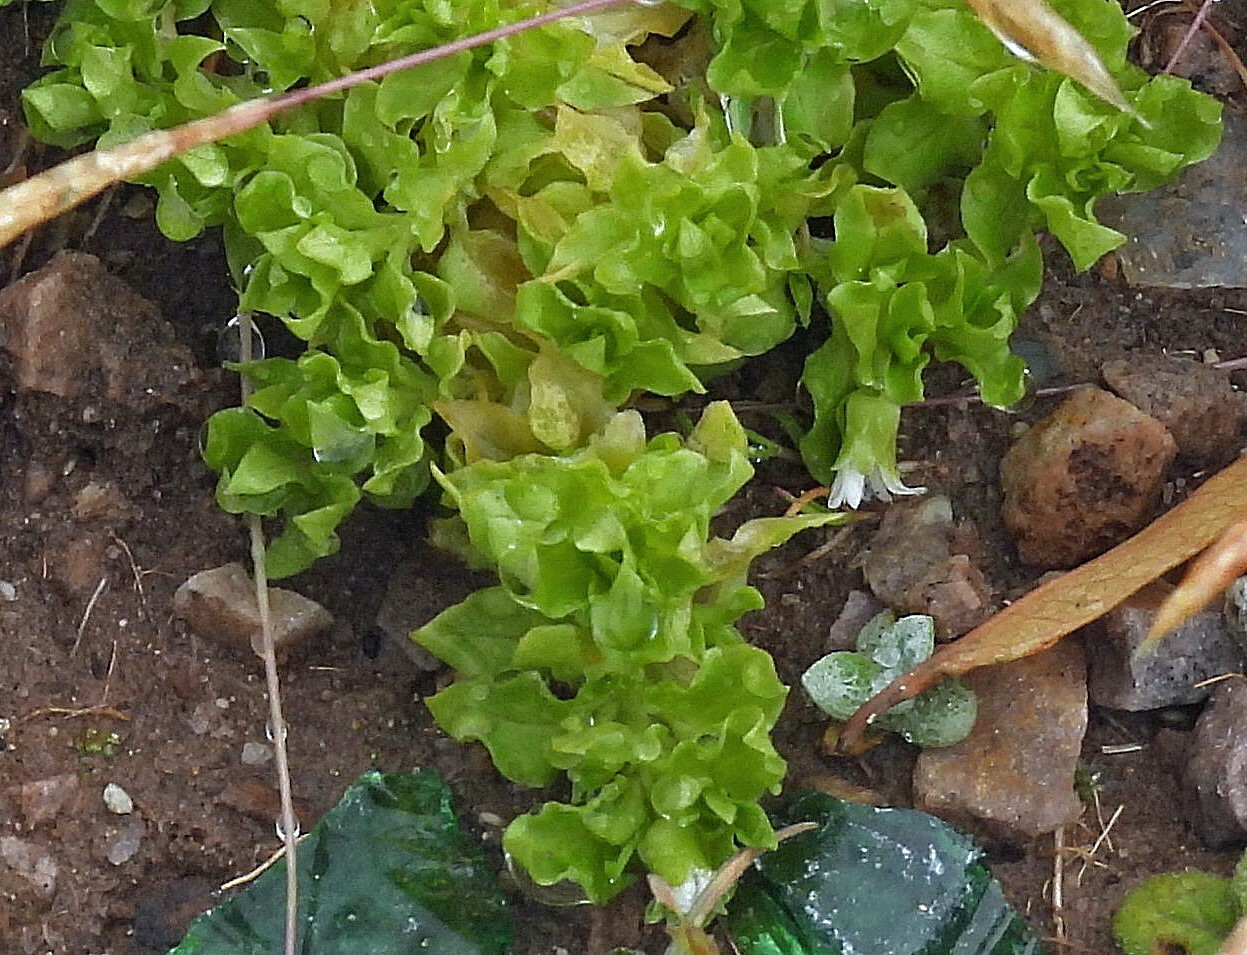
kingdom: Plantae
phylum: Tracheophyta
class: Magnoliopsida
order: Caryophyllales
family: Caryophyllaceae
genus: Stellaria
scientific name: Stellaria weddellii
